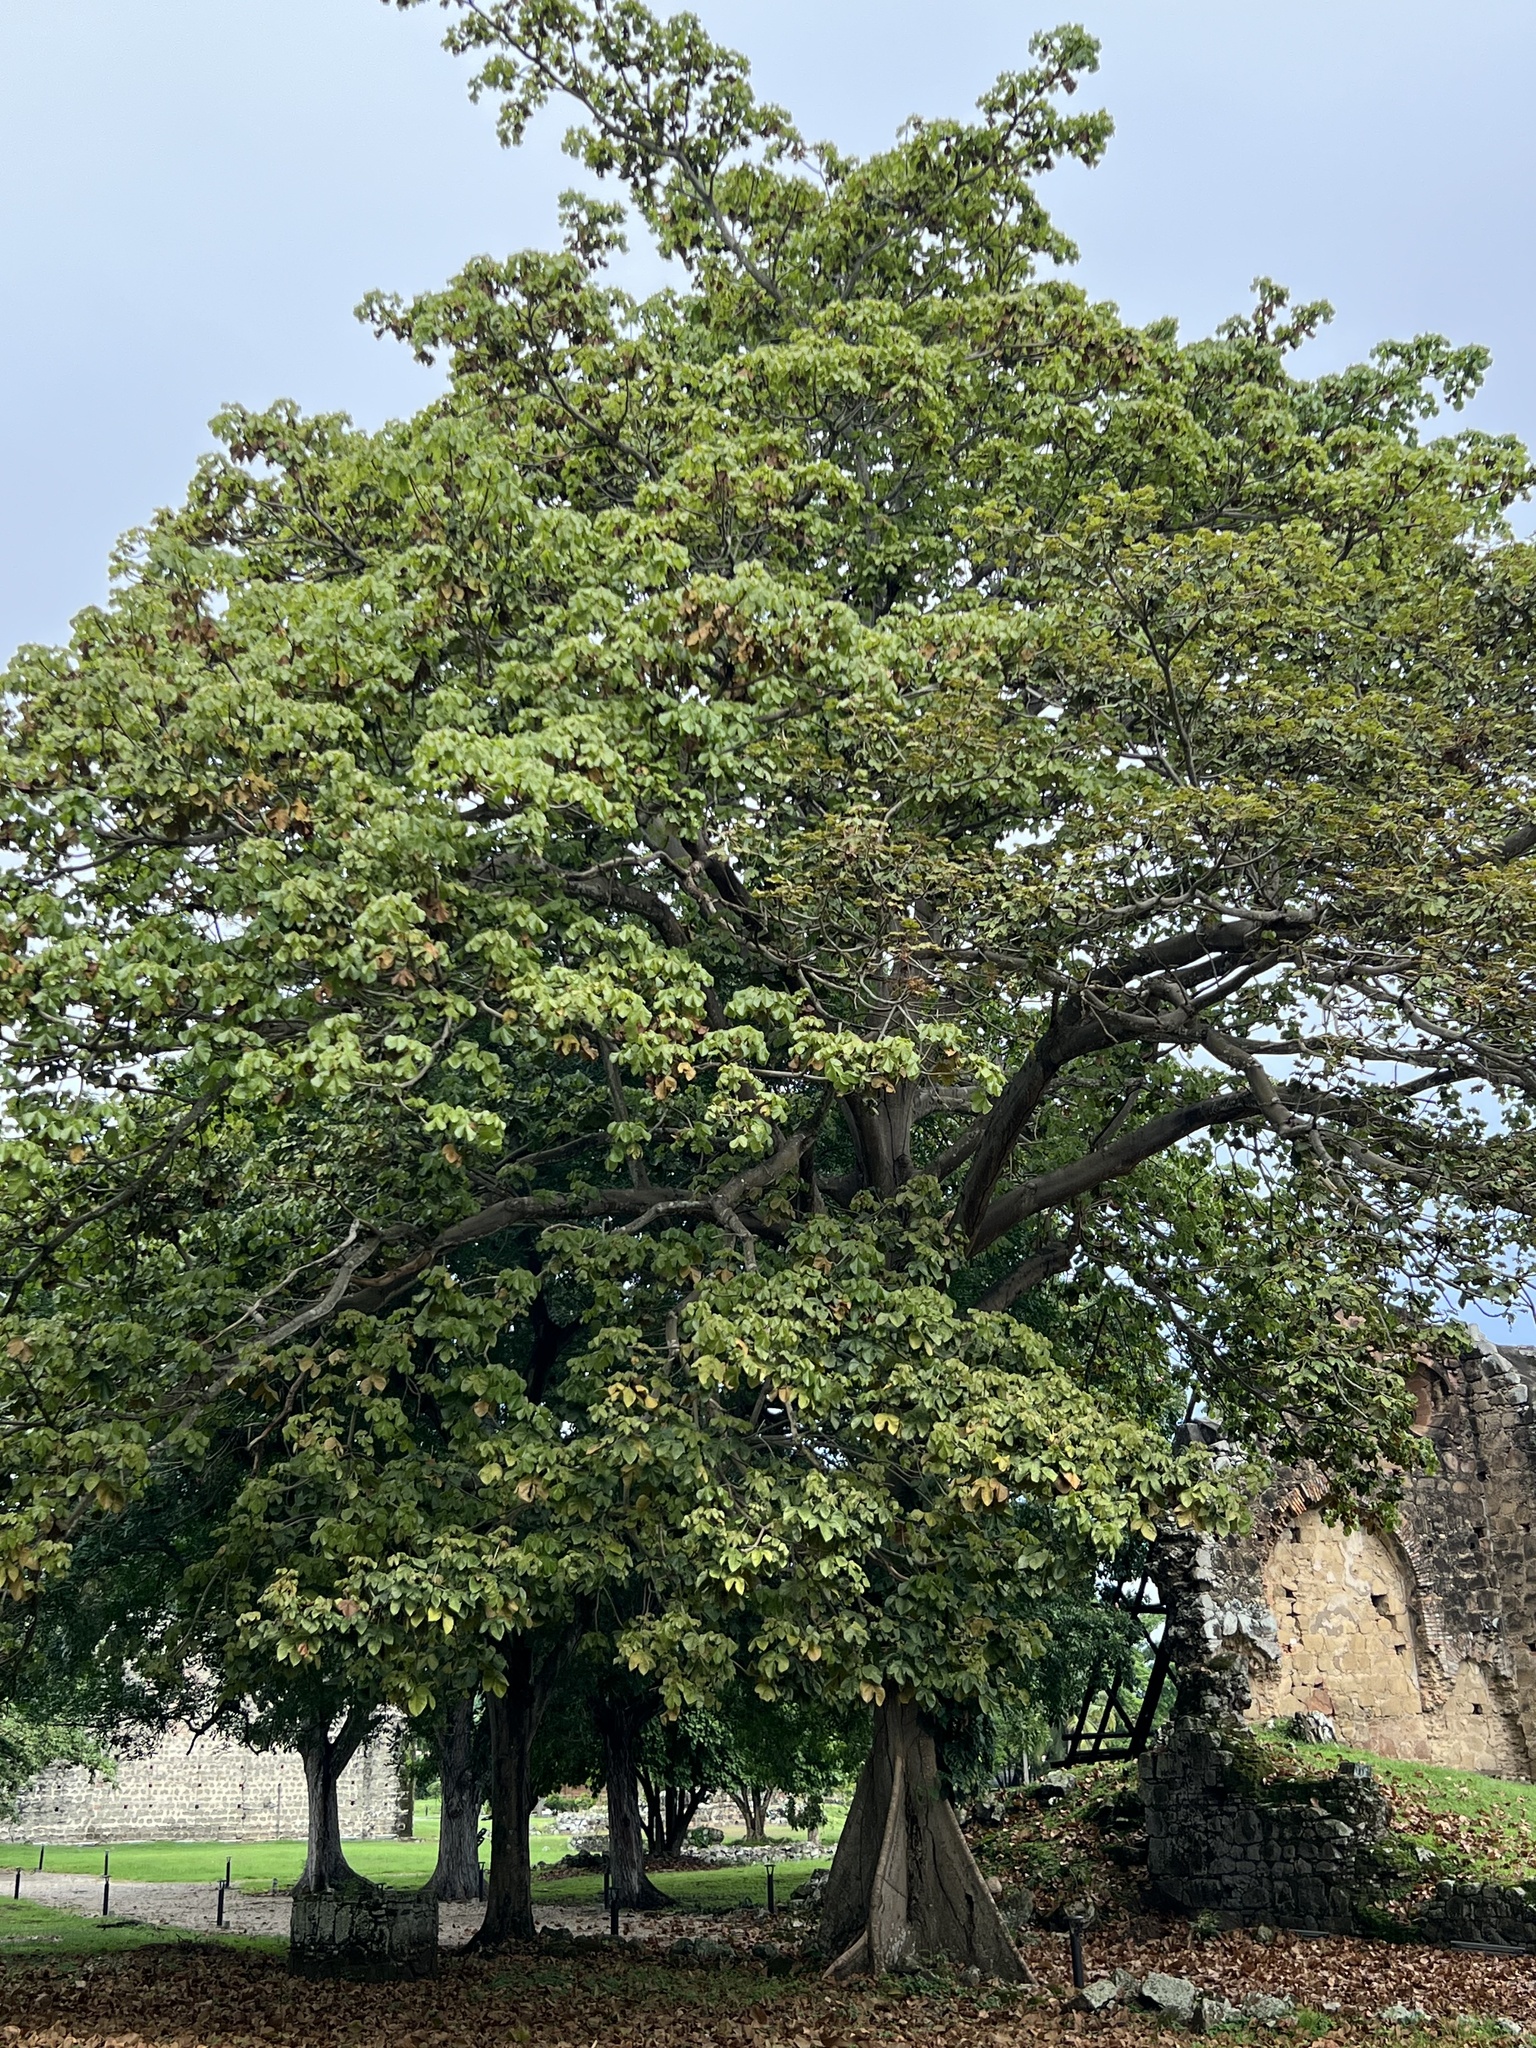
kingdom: Plantae
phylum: Tracheophyta
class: Magnoliopsida
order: Malvales
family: Malvaceae
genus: Sterculia
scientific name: Sterculia apetala
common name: Panama tree
